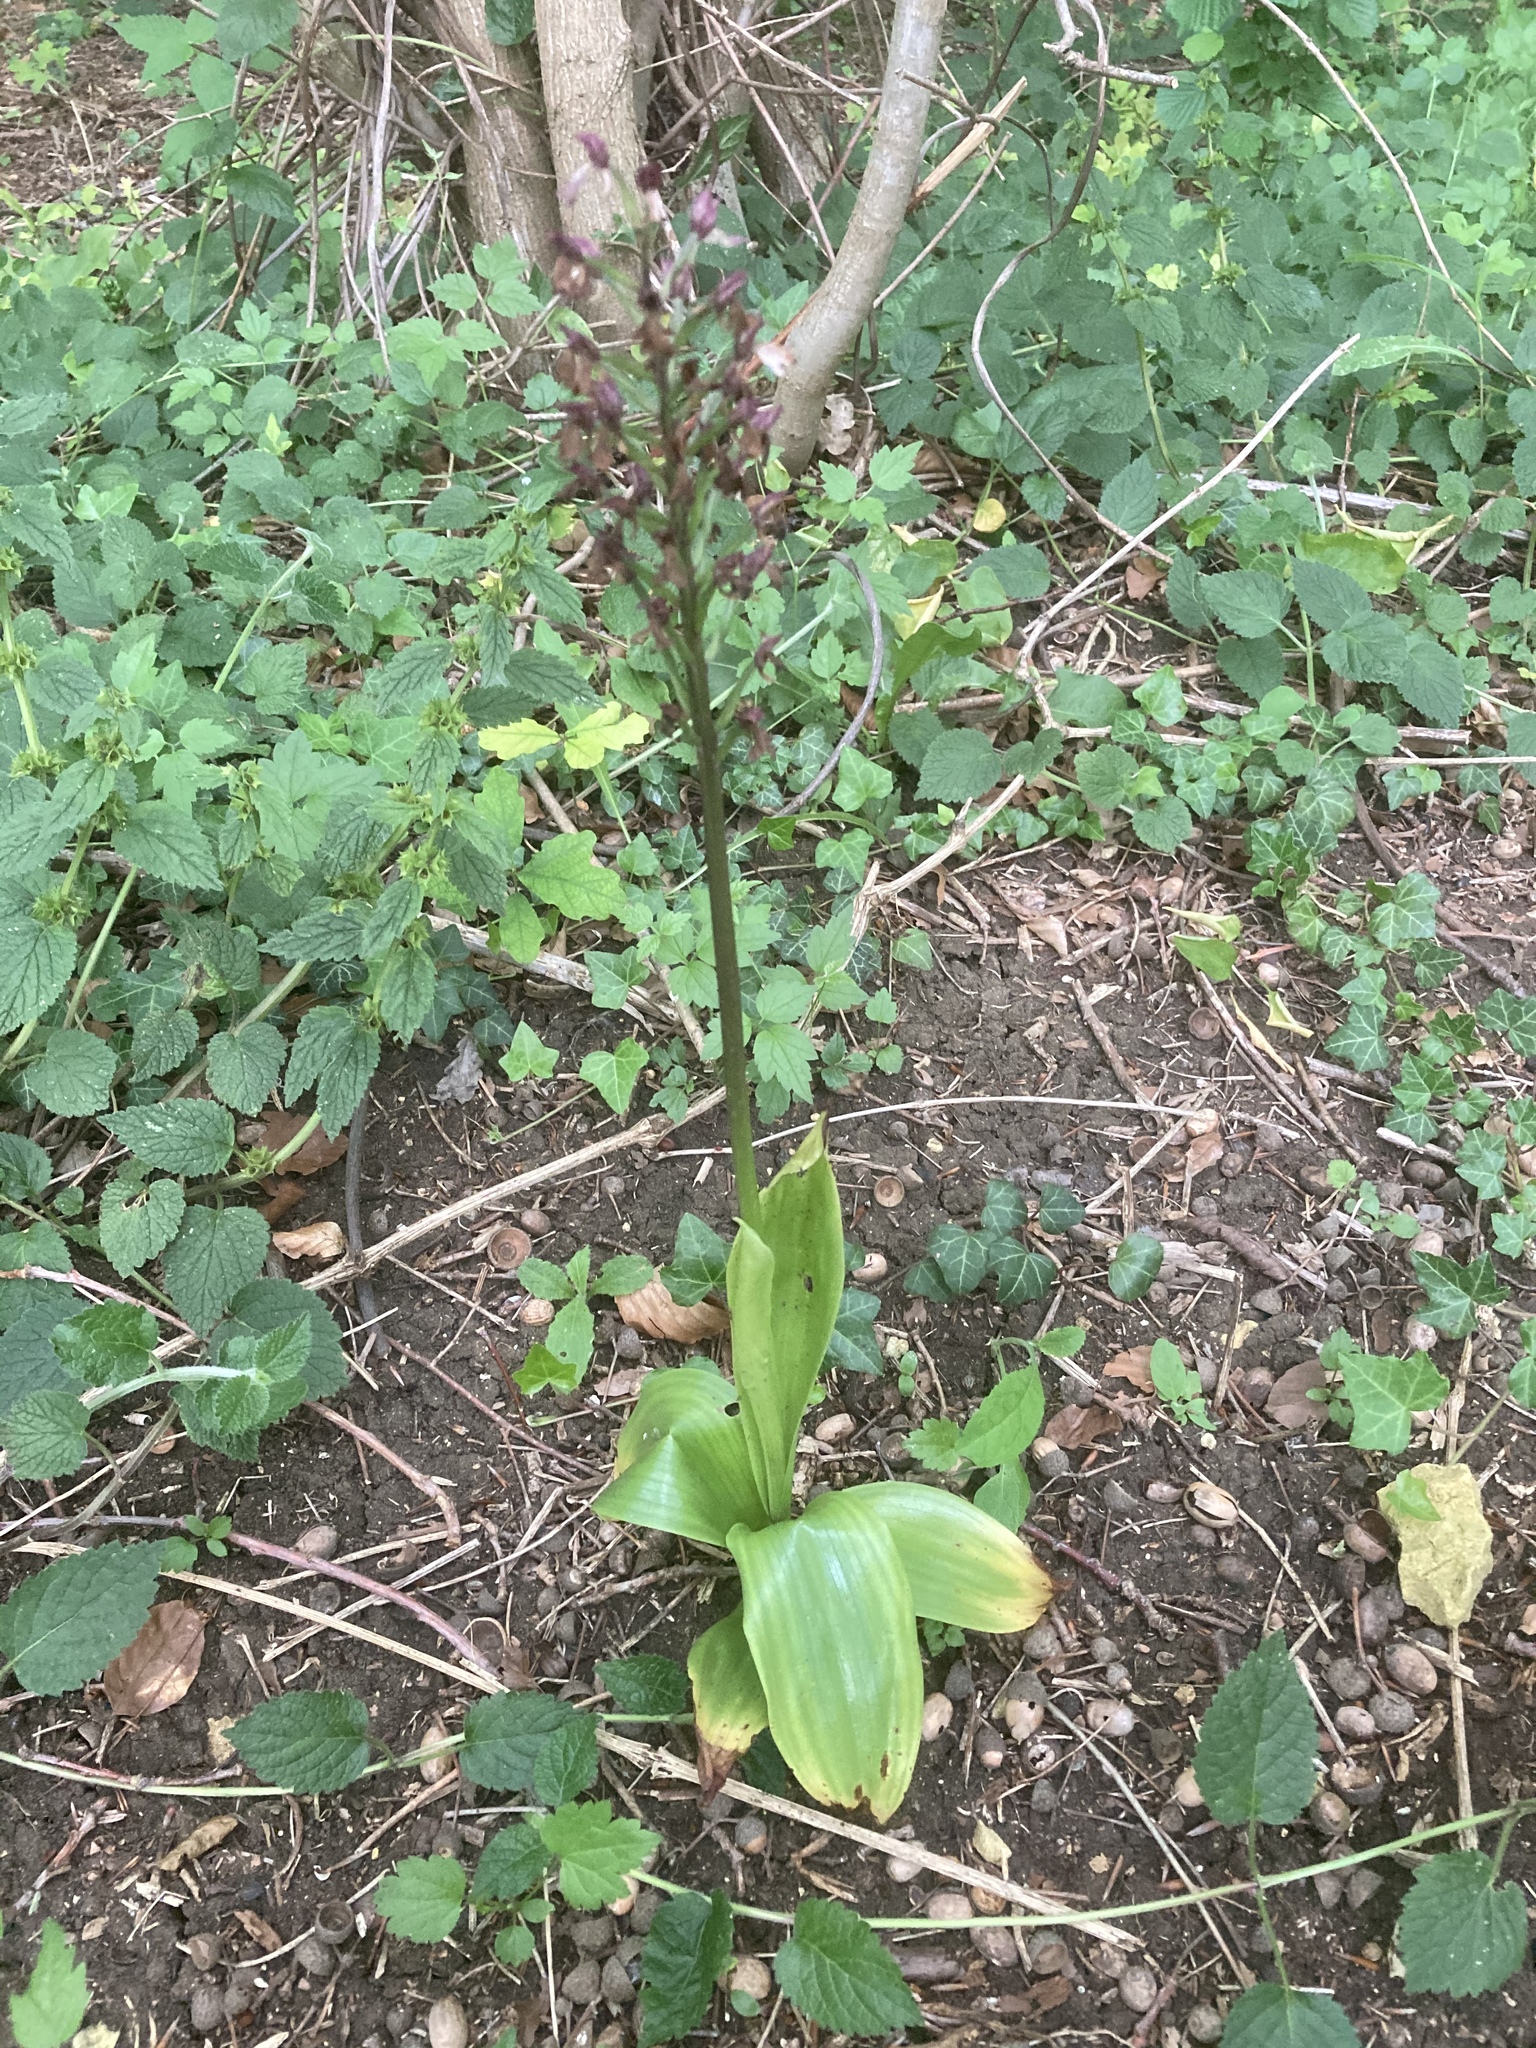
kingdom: Plantae
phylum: Tracheophyta
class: Liliopsida
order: Asparagales
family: Orchidaceae
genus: Orchis
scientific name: Orchis purpurea
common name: Lady orchid
